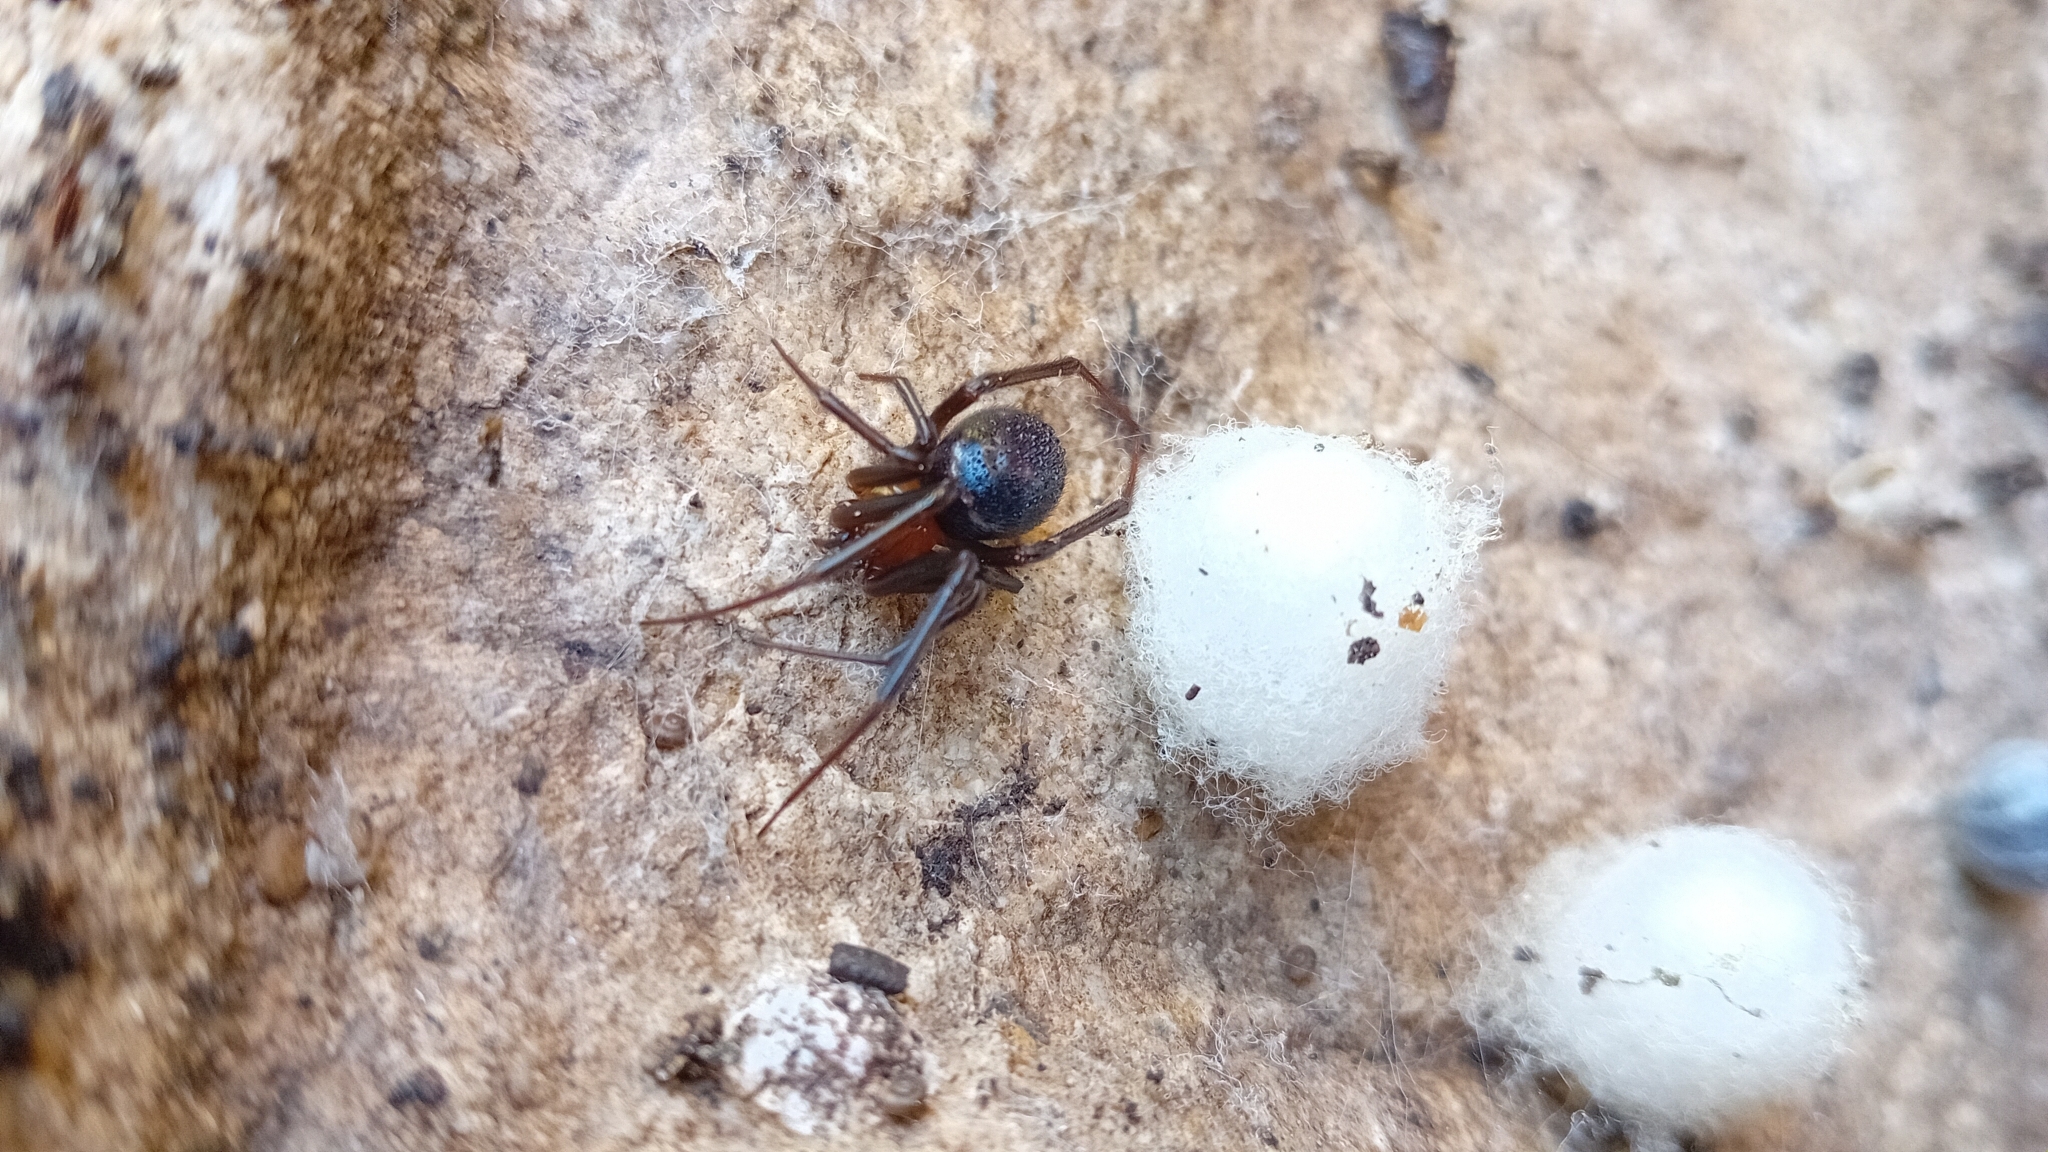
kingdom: Animalia
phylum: Arthropoda
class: Arachnida
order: Araneae
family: Theridiidae
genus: Steatoda
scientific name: Steatoda grossa
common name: False black widow
